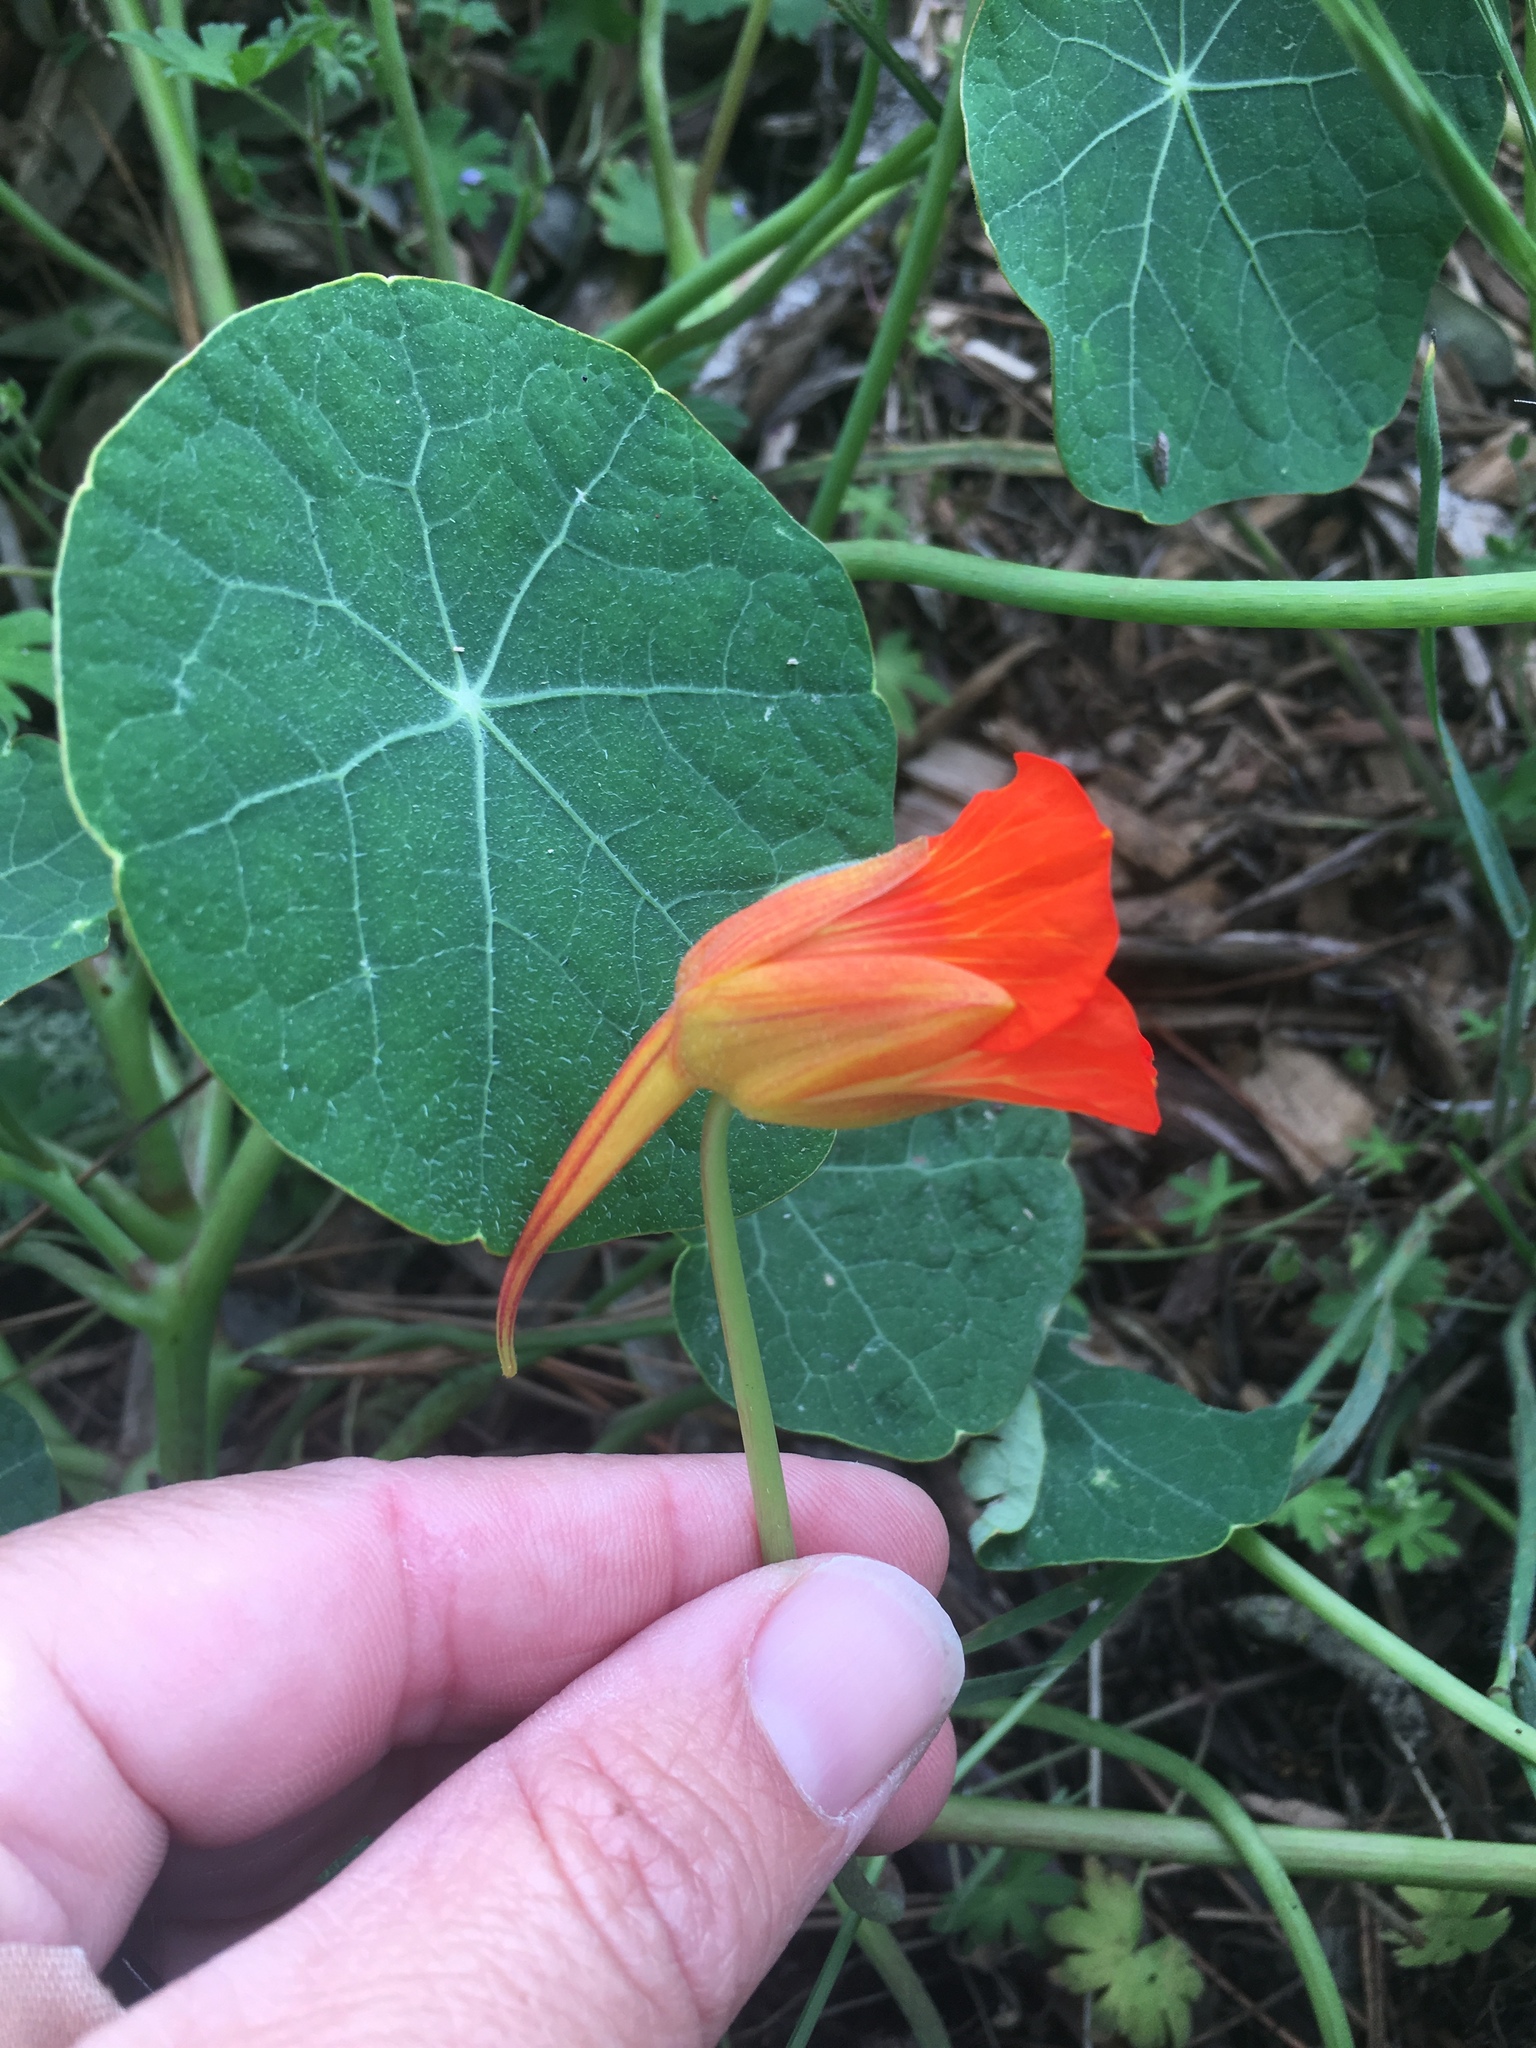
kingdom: Plantae
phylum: Tracheophyta
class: Magnoliopsida
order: Brassicales
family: Tropaeolaceae
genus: Tropaeolum
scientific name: Tropaeolum majus
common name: Nasturtium
